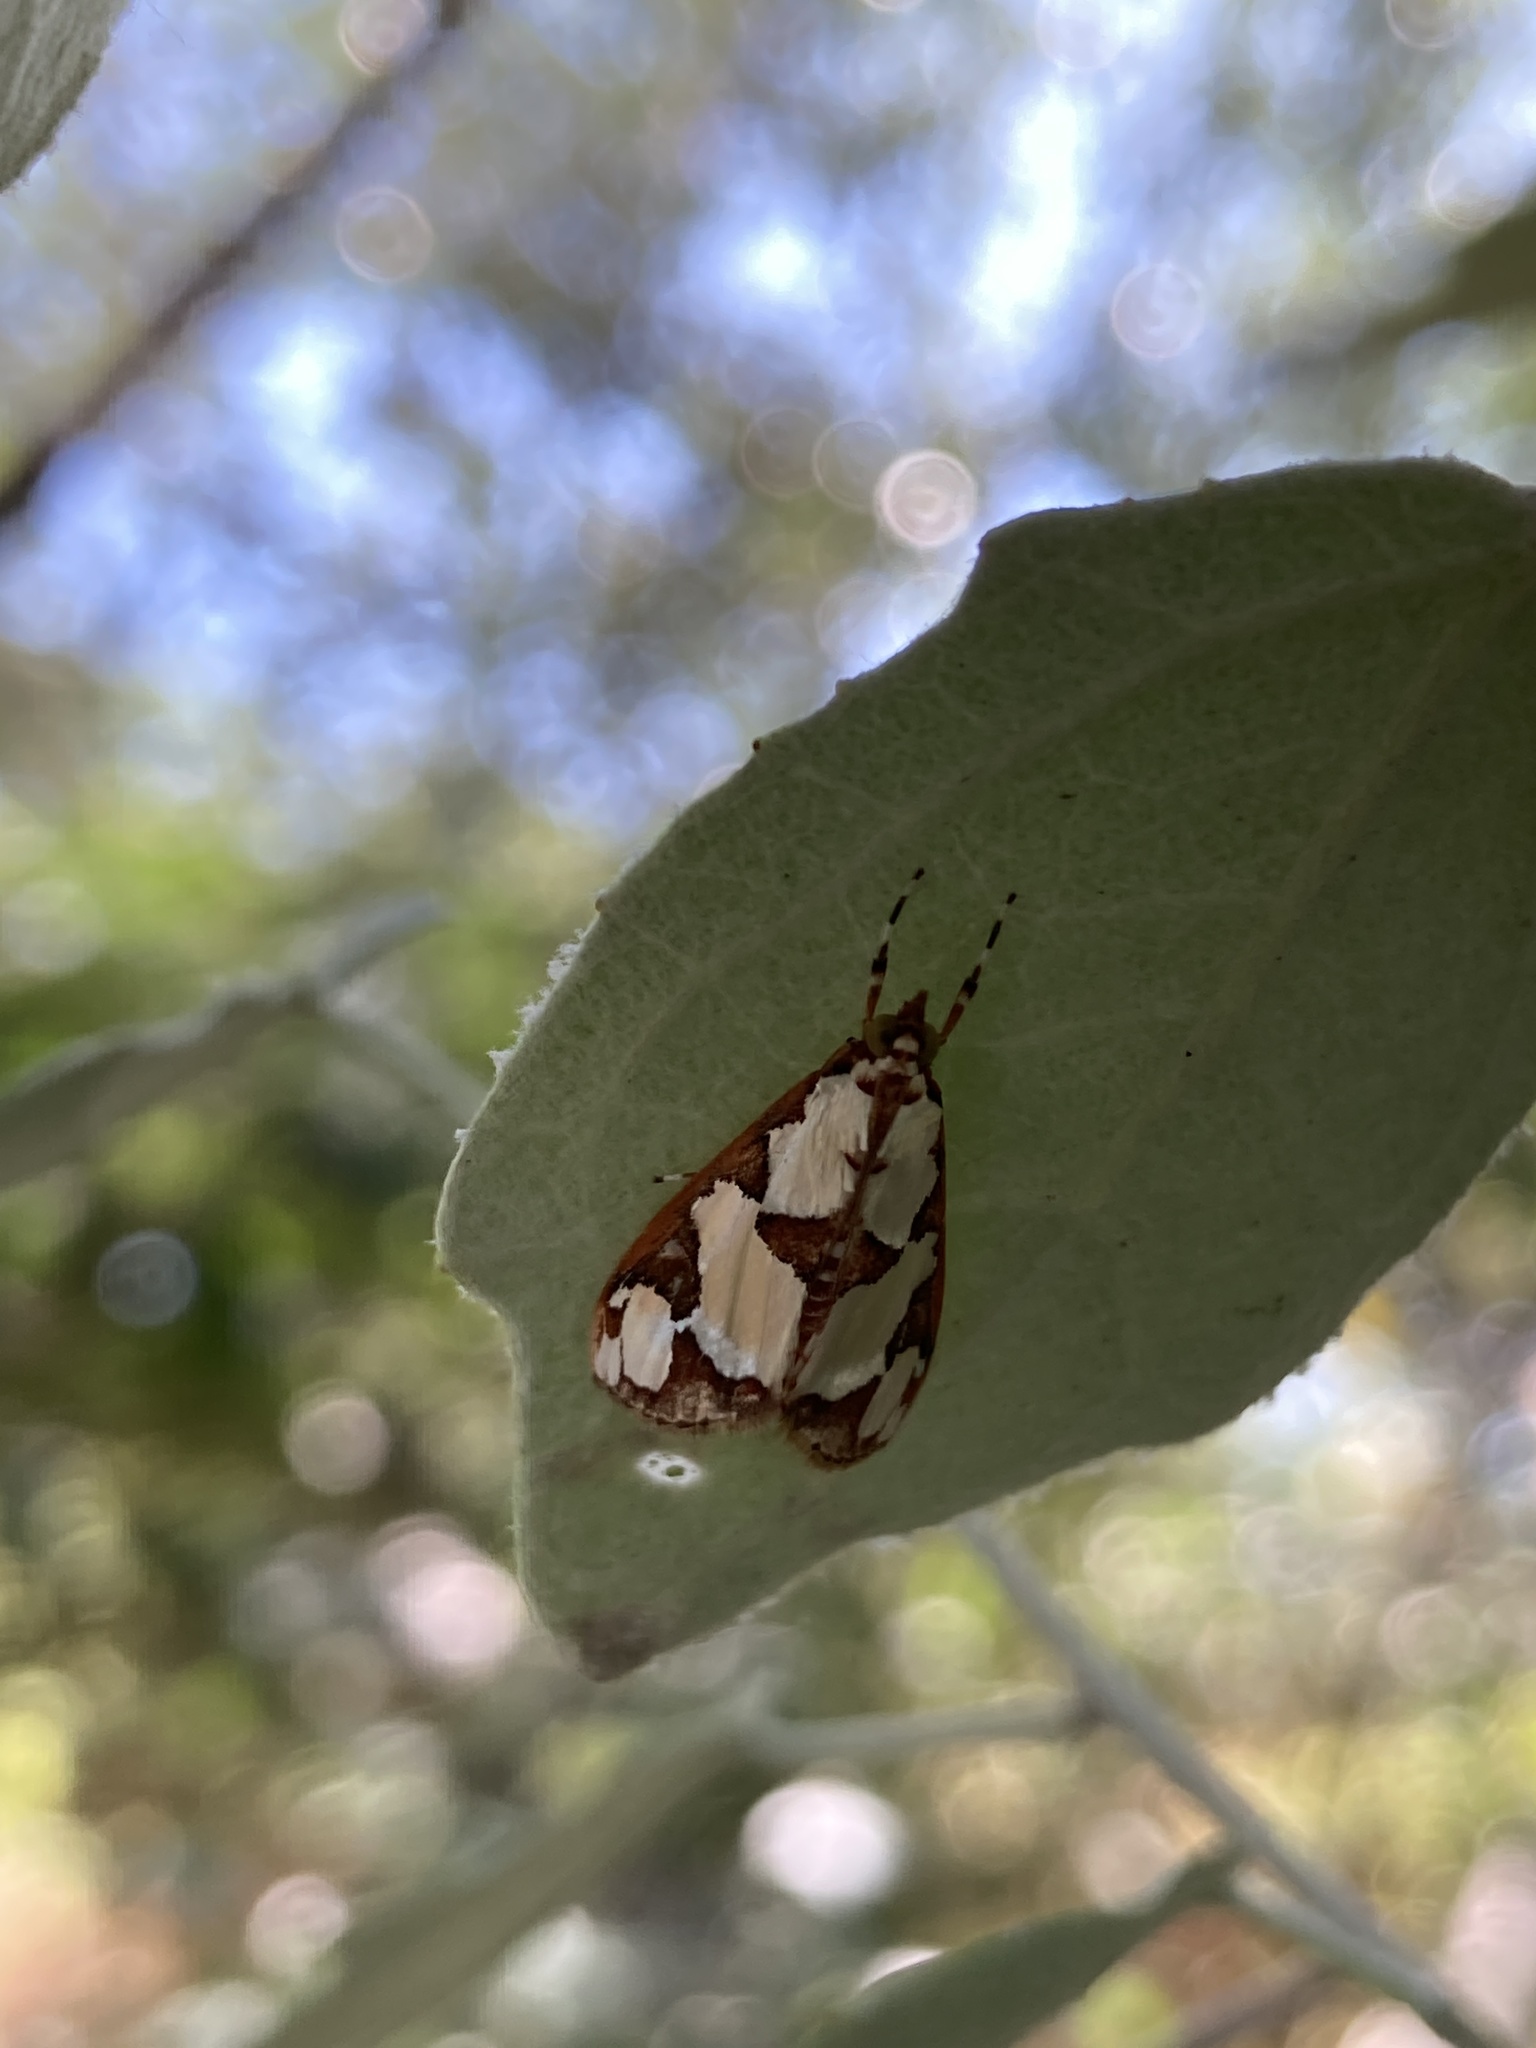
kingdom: Animalia
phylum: Arthropoda
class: Insecta
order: Lepidoptera
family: Crambidae
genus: Argyrarcha
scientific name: Argyrarcha margarita
